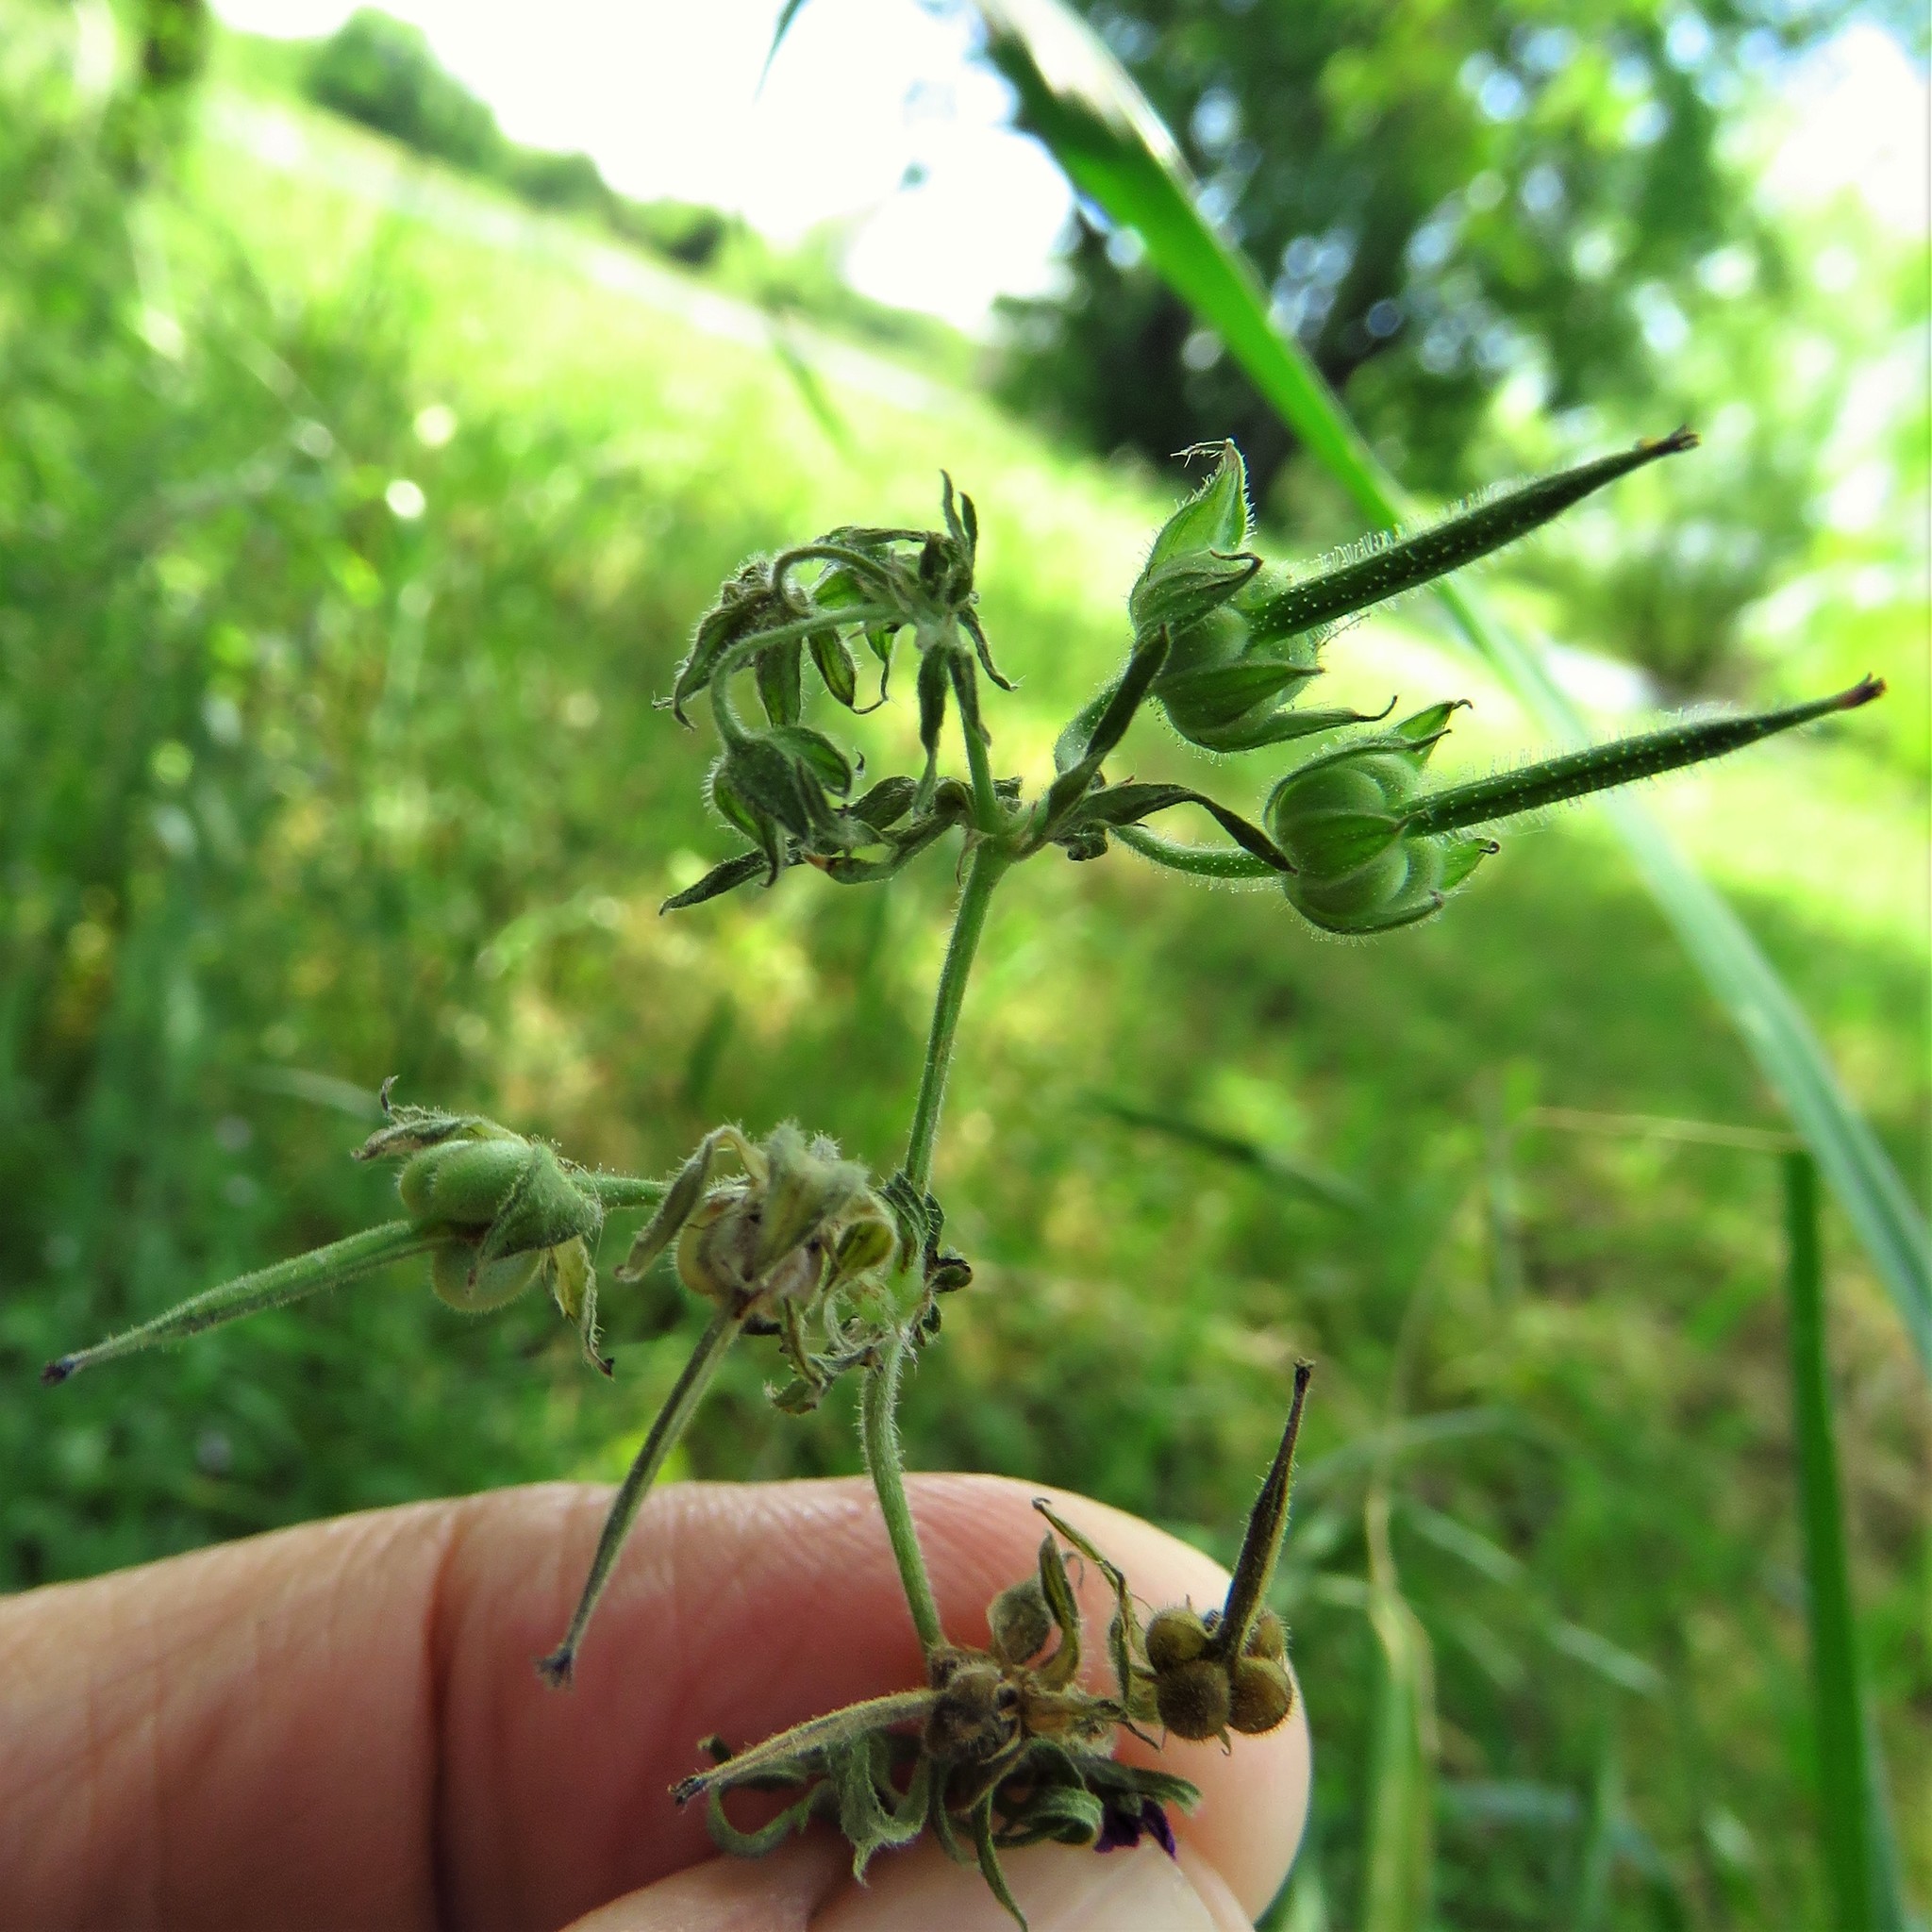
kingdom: Plantae
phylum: Tracheophyta
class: Magnoliopsida
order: Geraniales
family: Geraniaceae
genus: Geranium
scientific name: Geranium dissectum
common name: Cut-leaved crane's-bill
